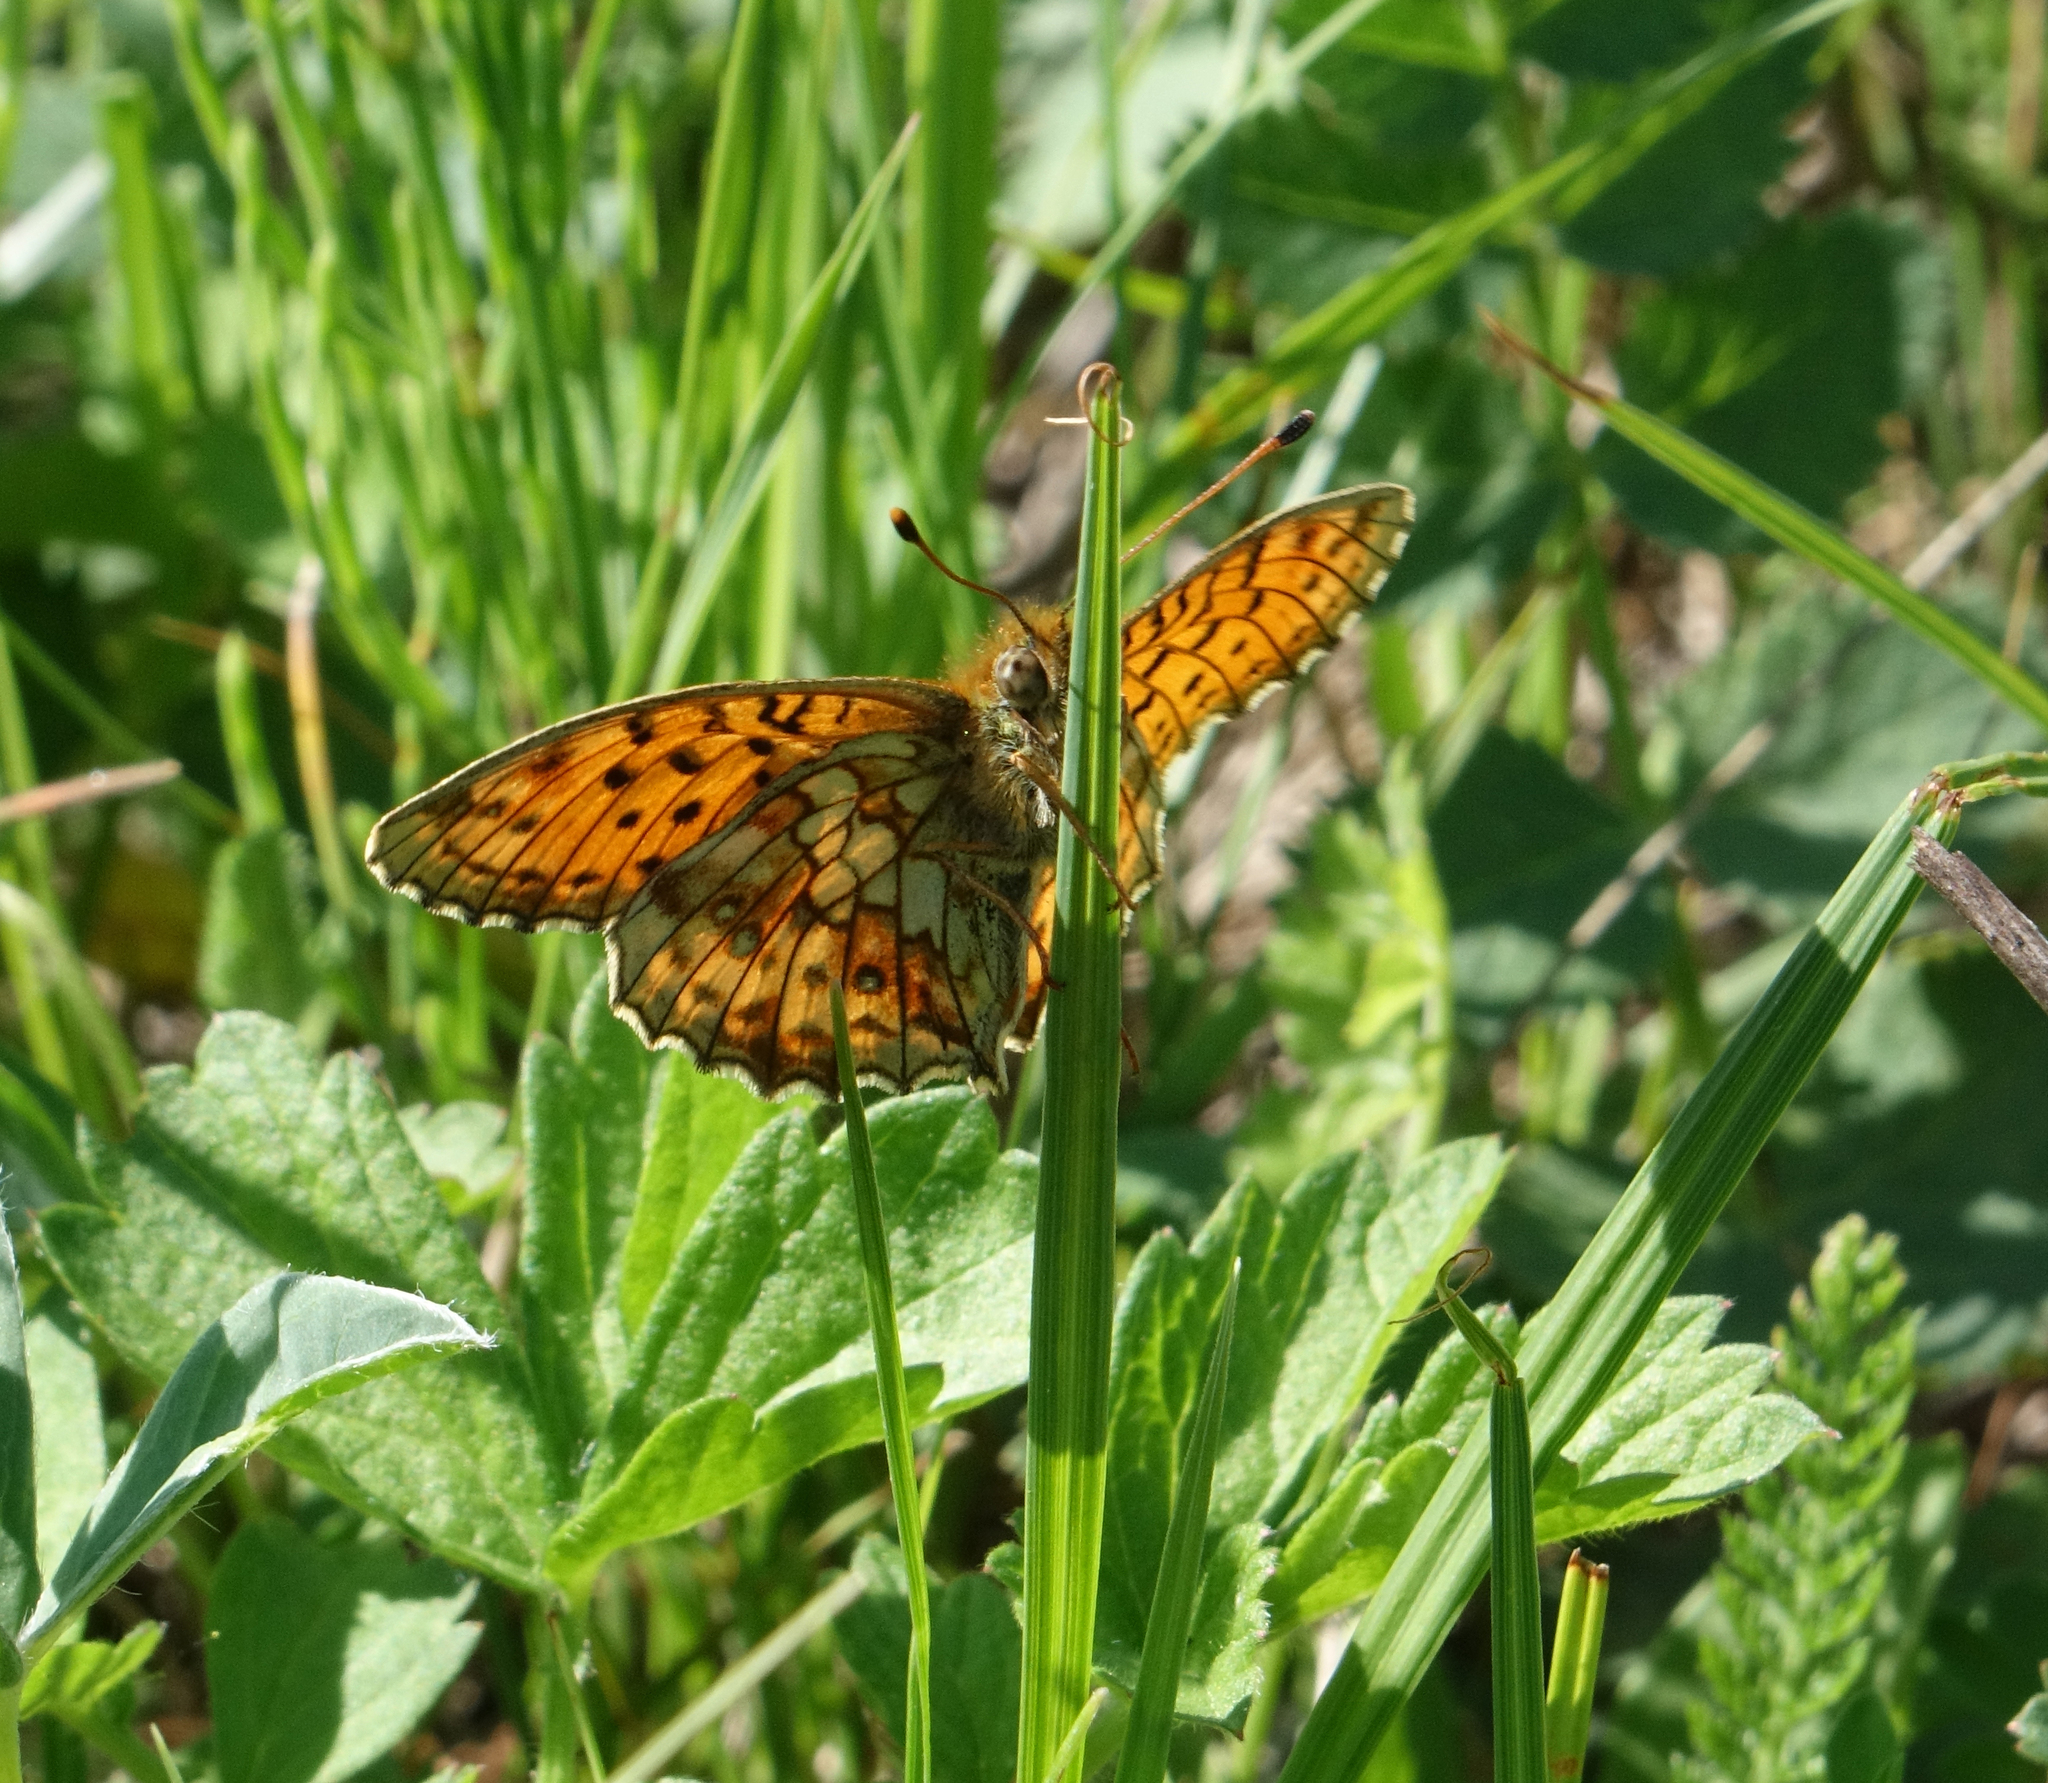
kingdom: Animalia
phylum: Arthropoda
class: Insecta
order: Lepidoptera
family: Nymphalidae
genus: Brenthis
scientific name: Brenthis ino
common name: Lesser marbled fritillary
